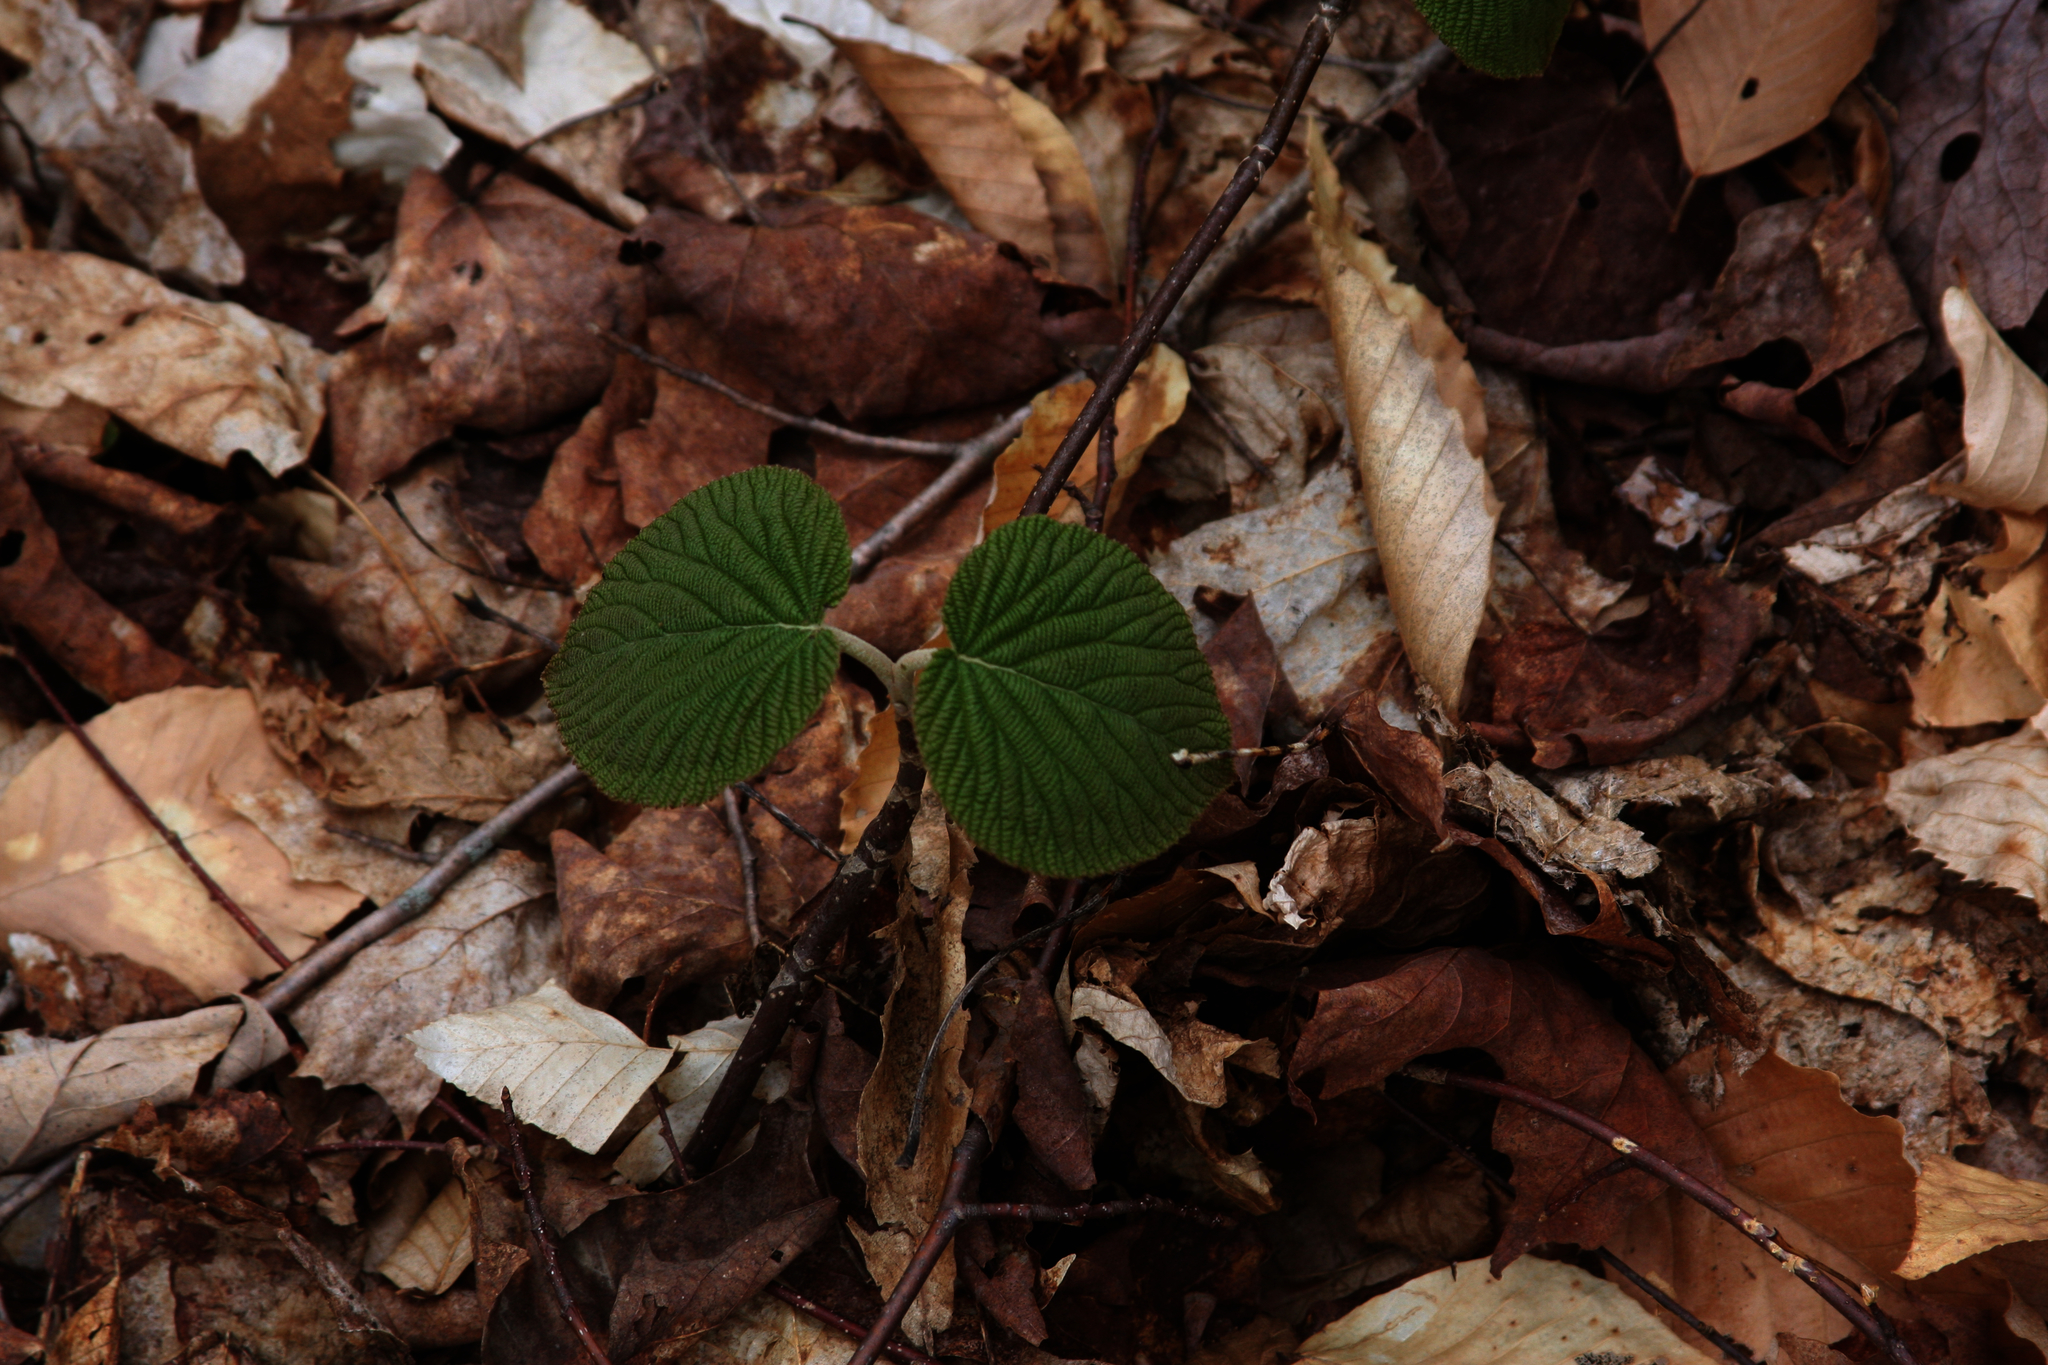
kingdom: Plantae
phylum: Tracheophyta
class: Magnoliopsida
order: Dipsacales
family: Viburnaceae
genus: Viburnum
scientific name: Viburnum lantanoides
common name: Hobblebush
